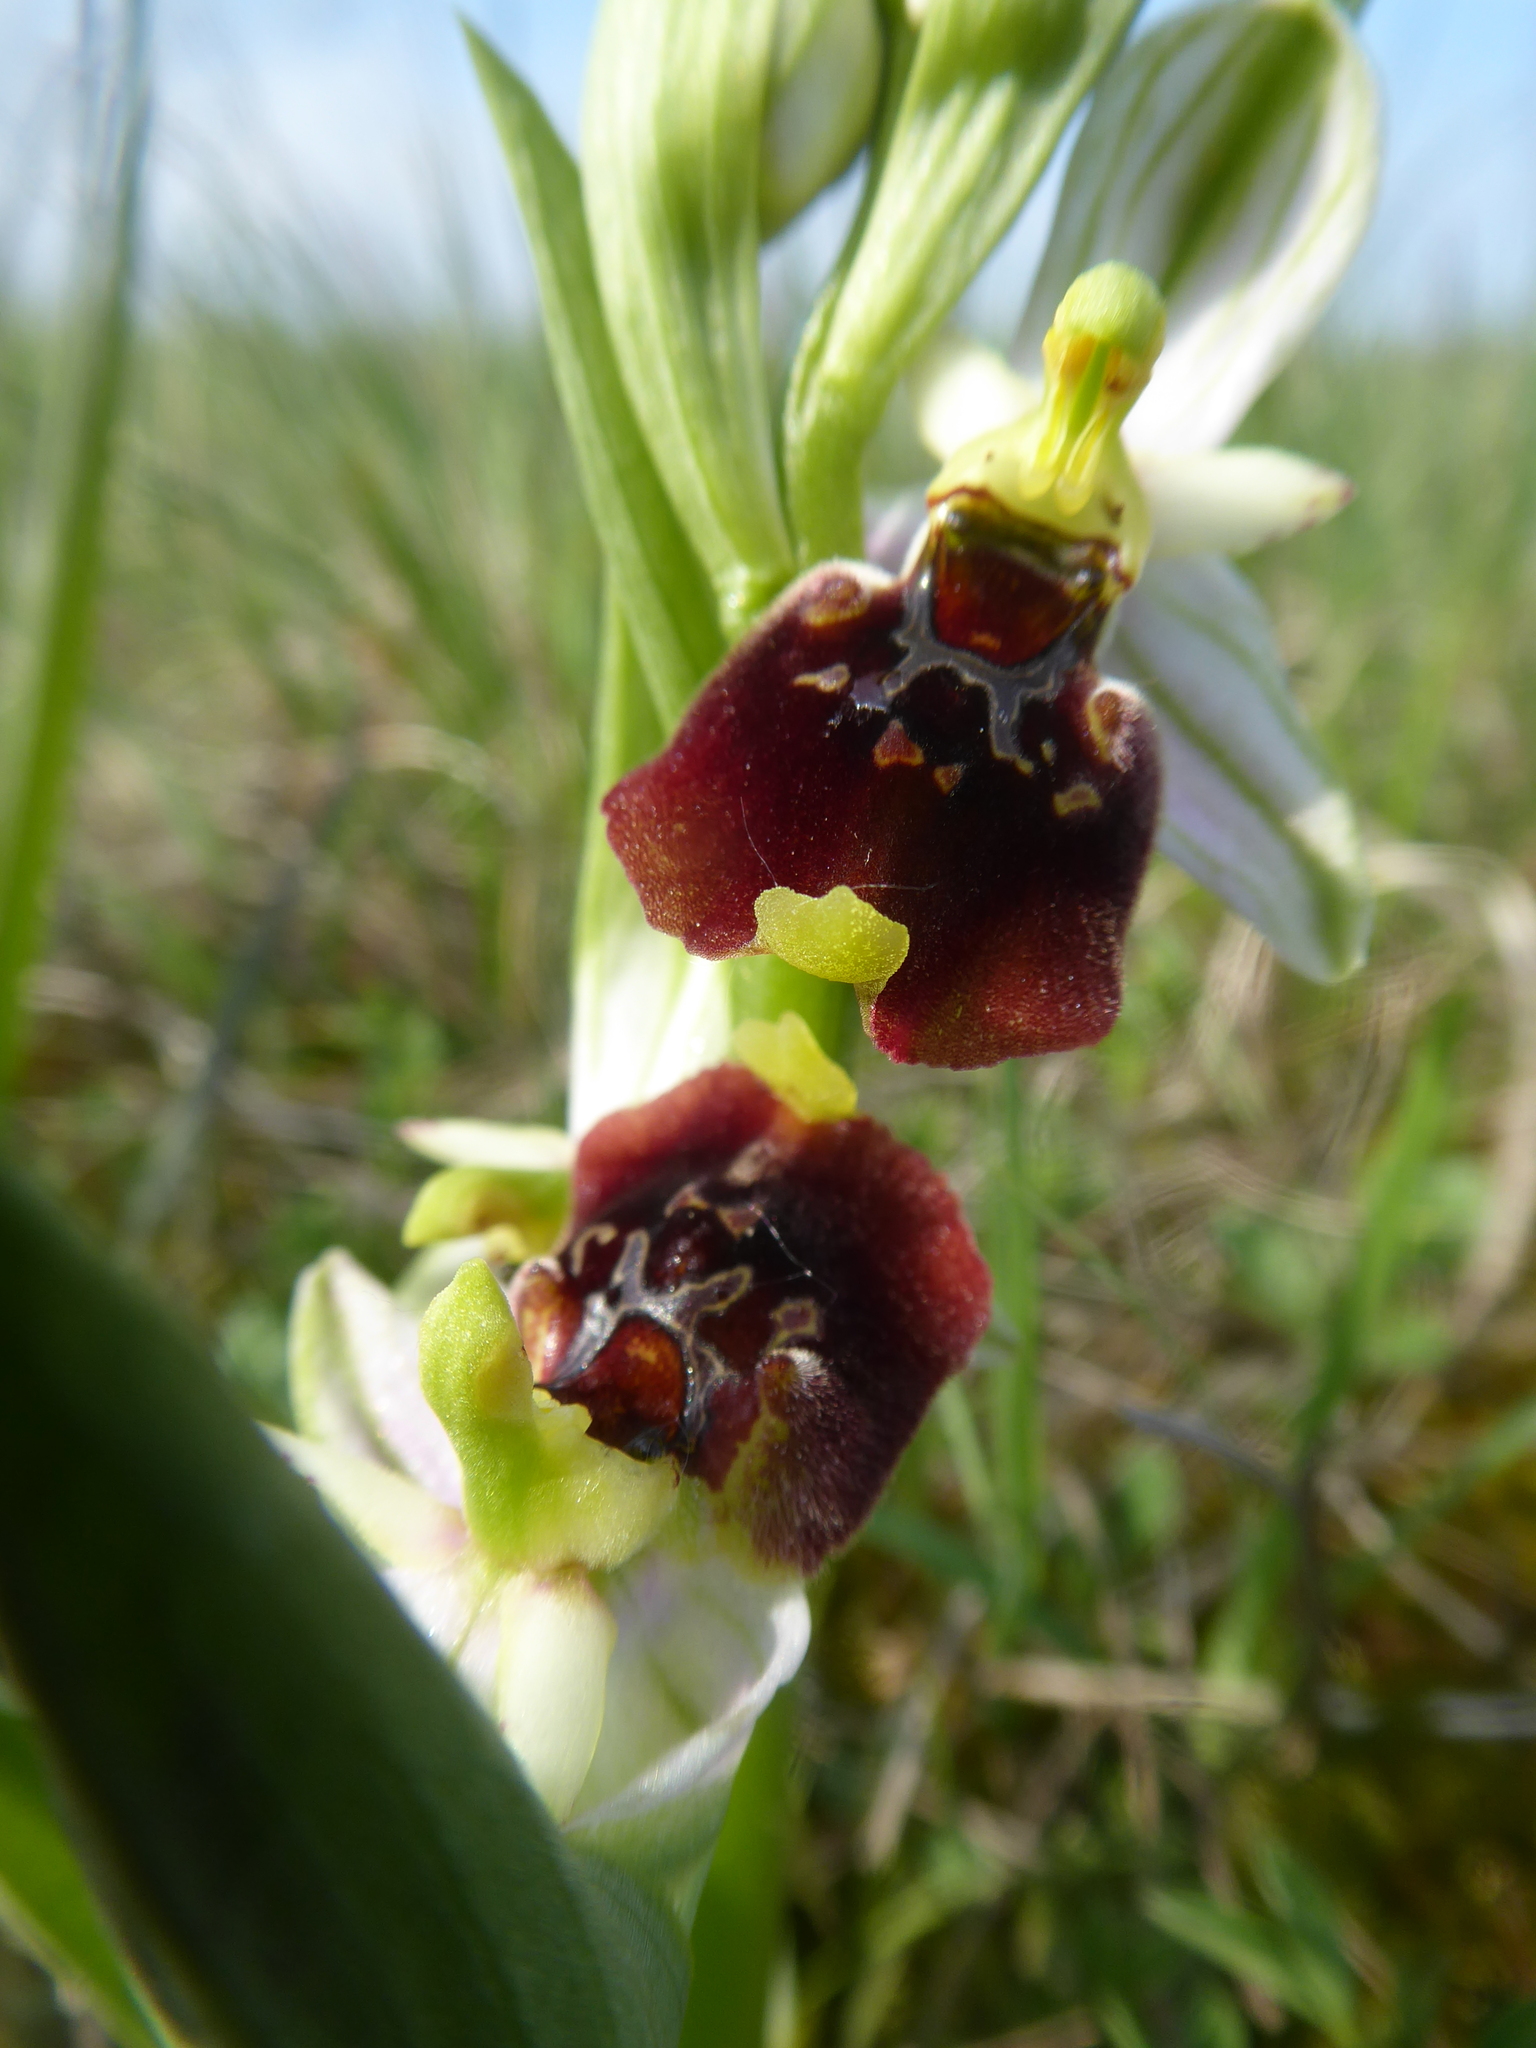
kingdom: Plantae
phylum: Tracheophyta
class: Liliopsida
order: Asparagales
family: Orchidaceae
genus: Ophrys
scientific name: Ophrys holosericea
